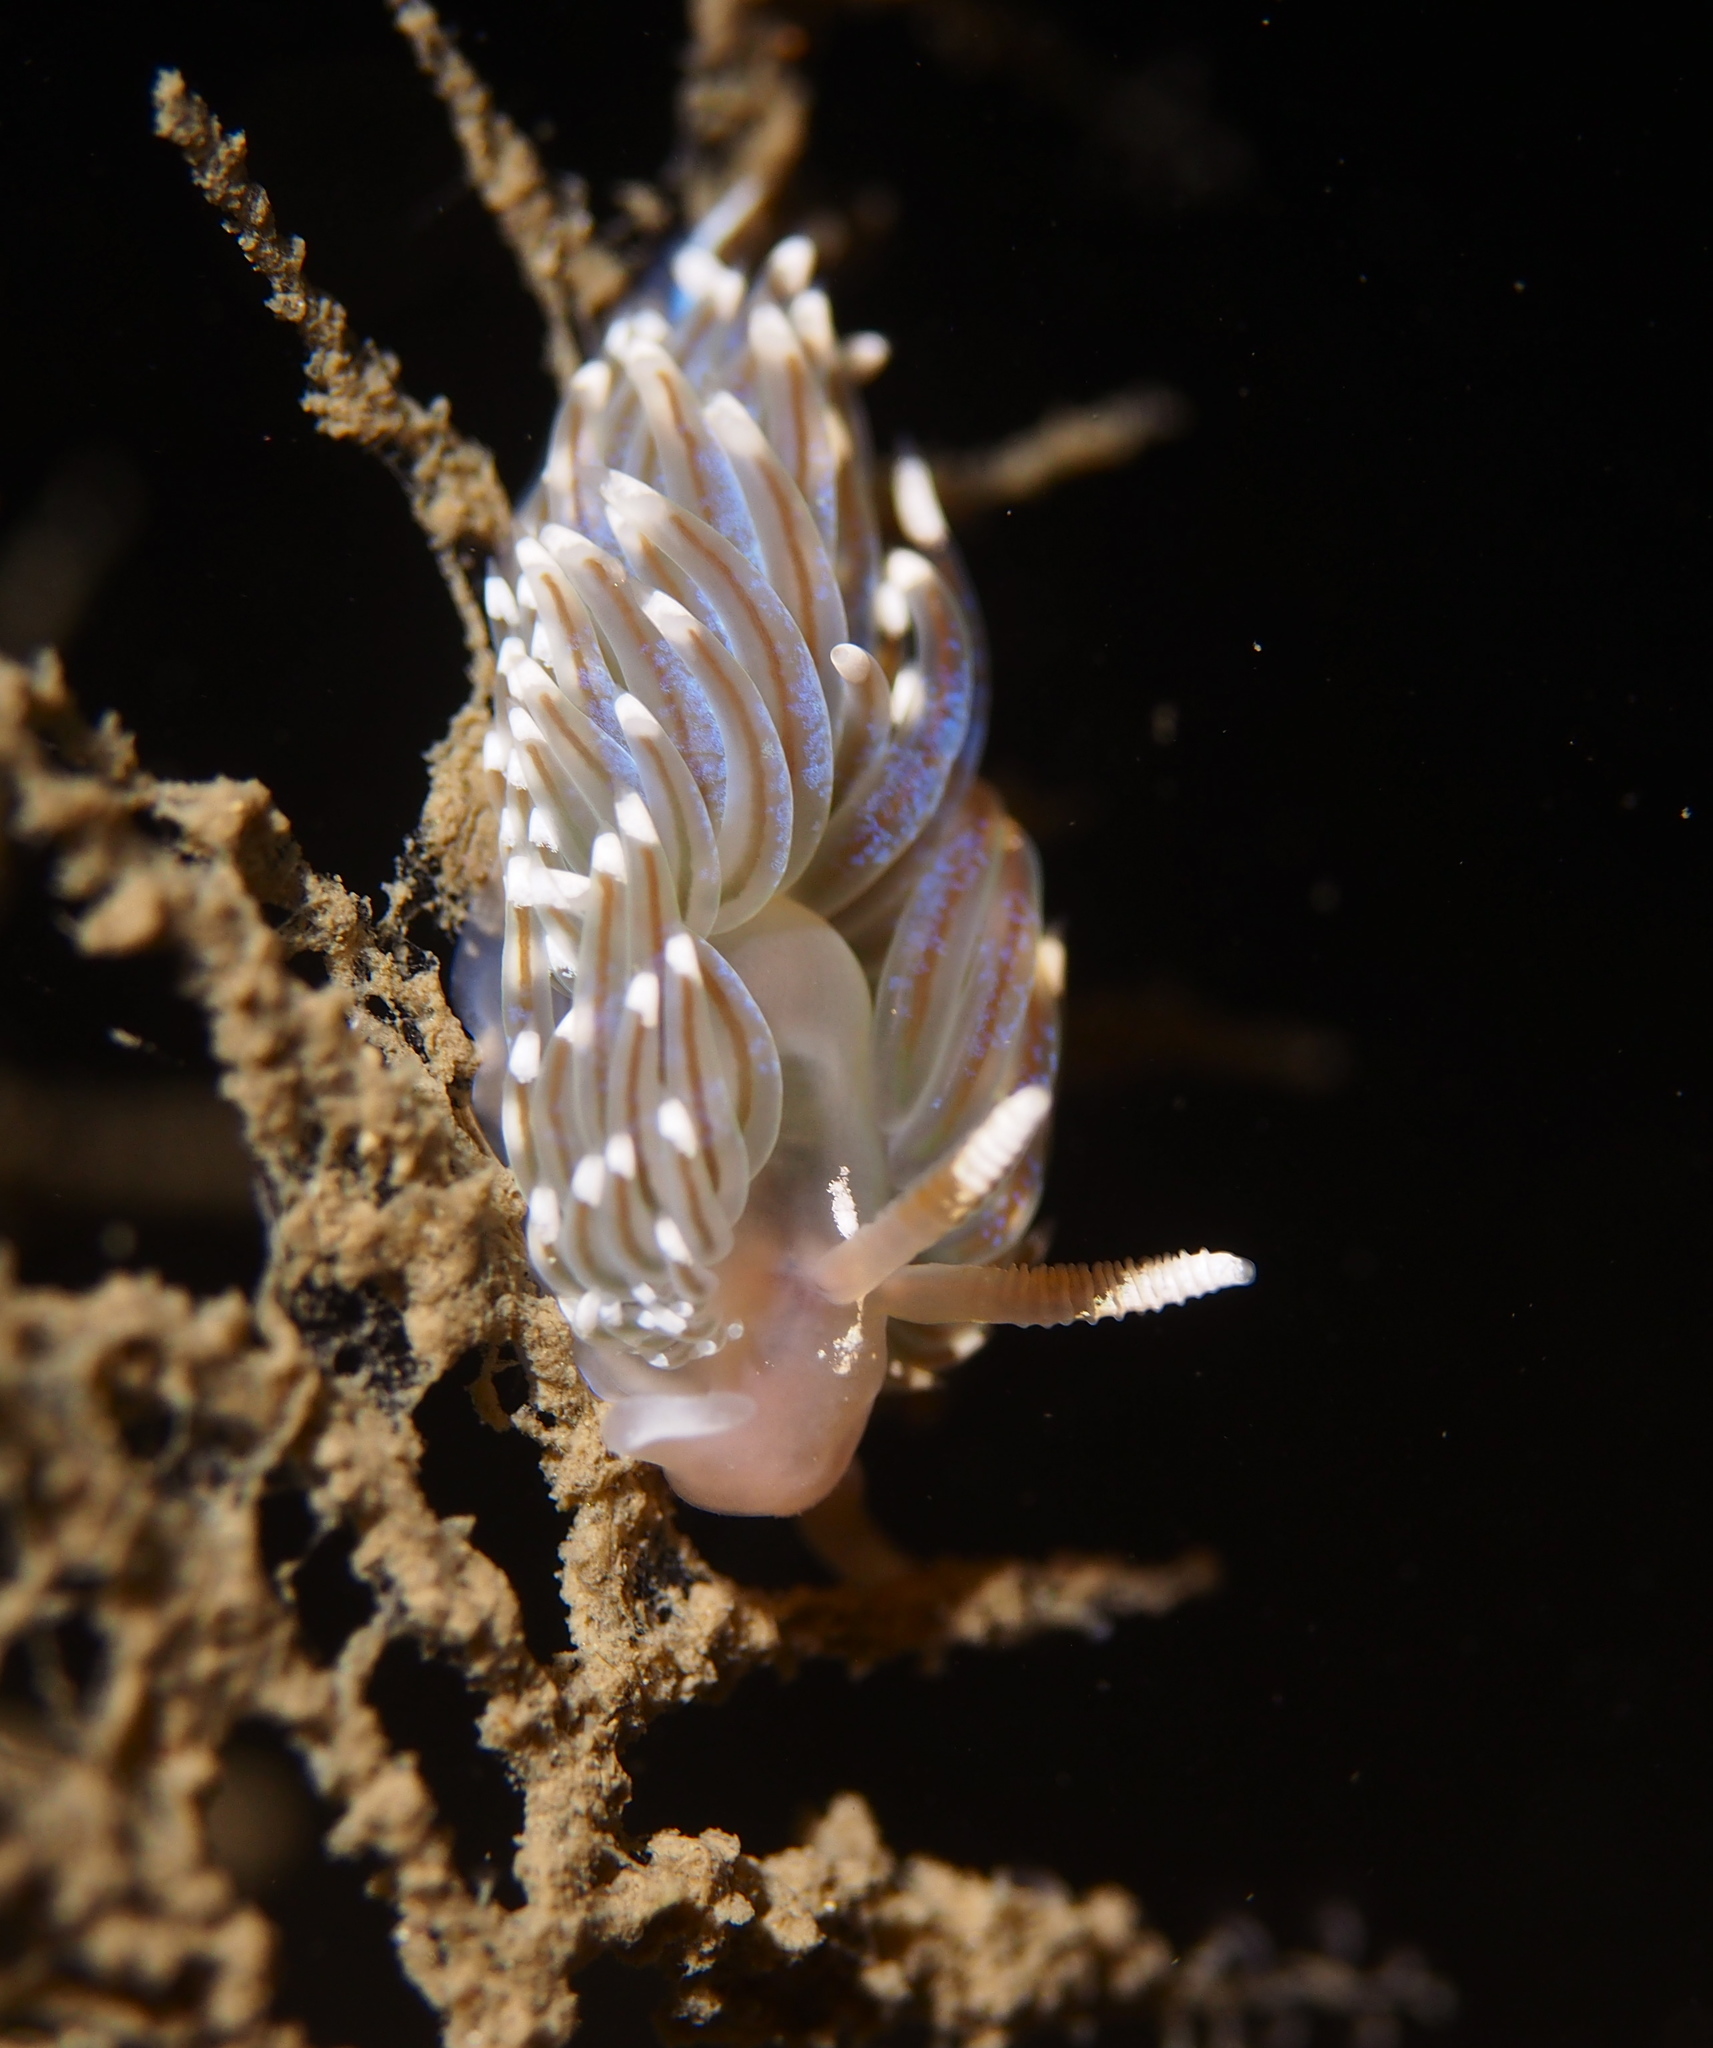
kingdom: Animalia
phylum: Mollusca
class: Gastropoda
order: Nudibranchia
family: Facelinidae
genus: Facelina
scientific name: Facelina auriculata
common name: Slender facelina
